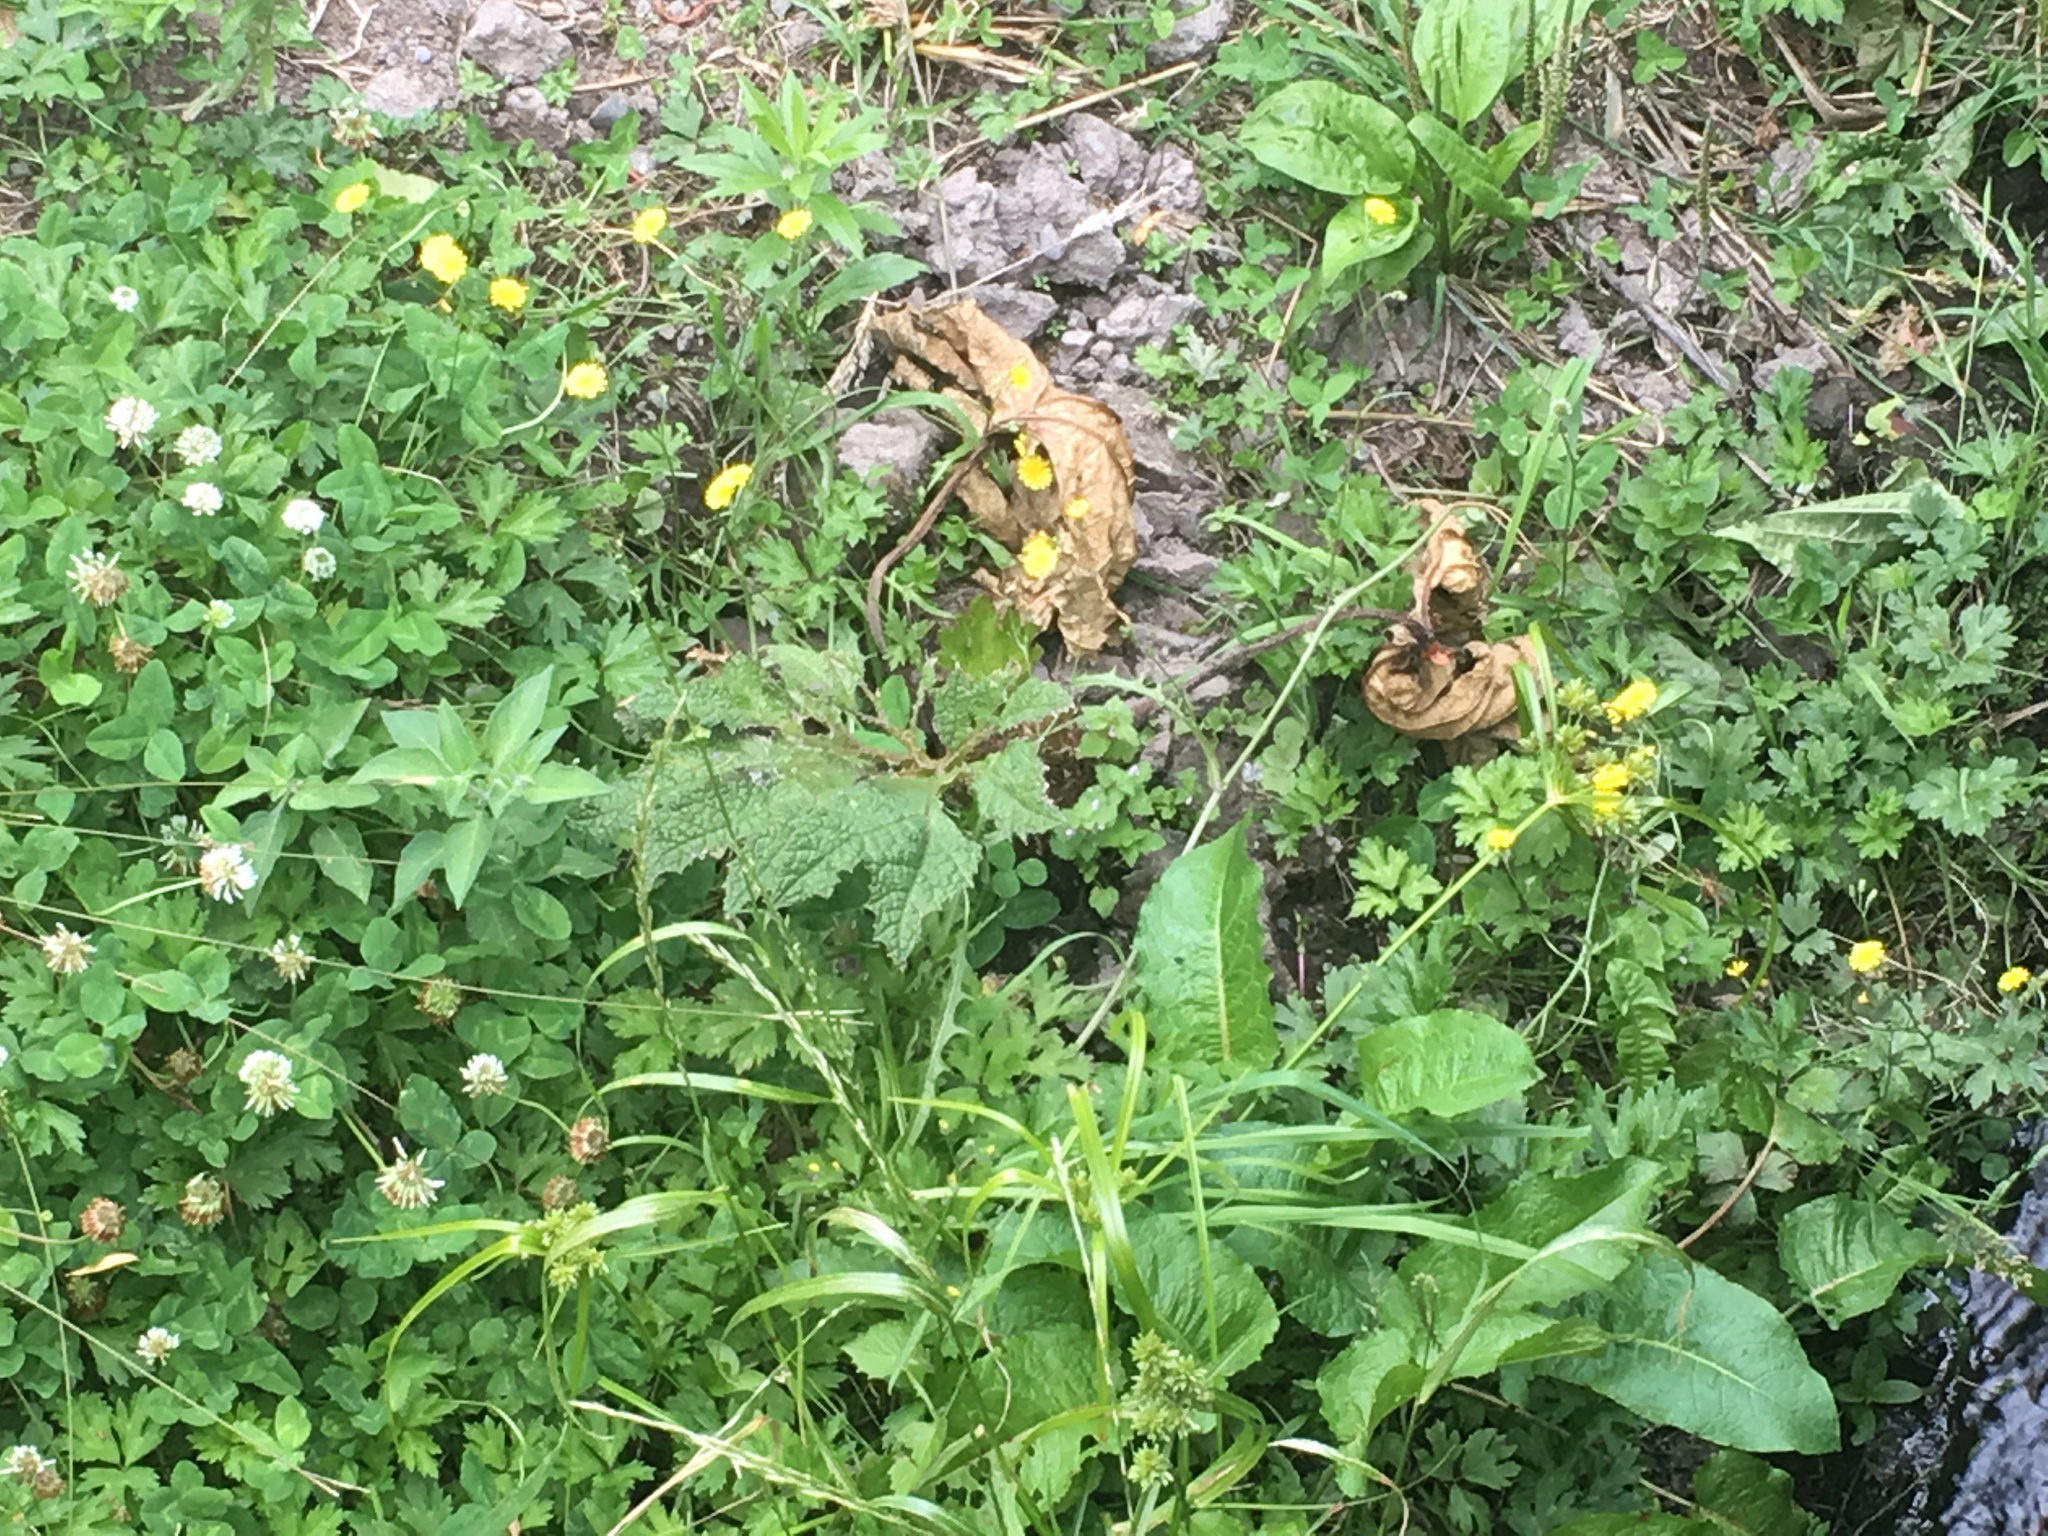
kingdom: Plantae
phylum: Tracheophyta
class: Magnoliopsida
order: Gunnerales
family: Gunneraceae
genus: Gunnera
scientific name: Gunnera tinctoria
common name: Giant-rhubarb
